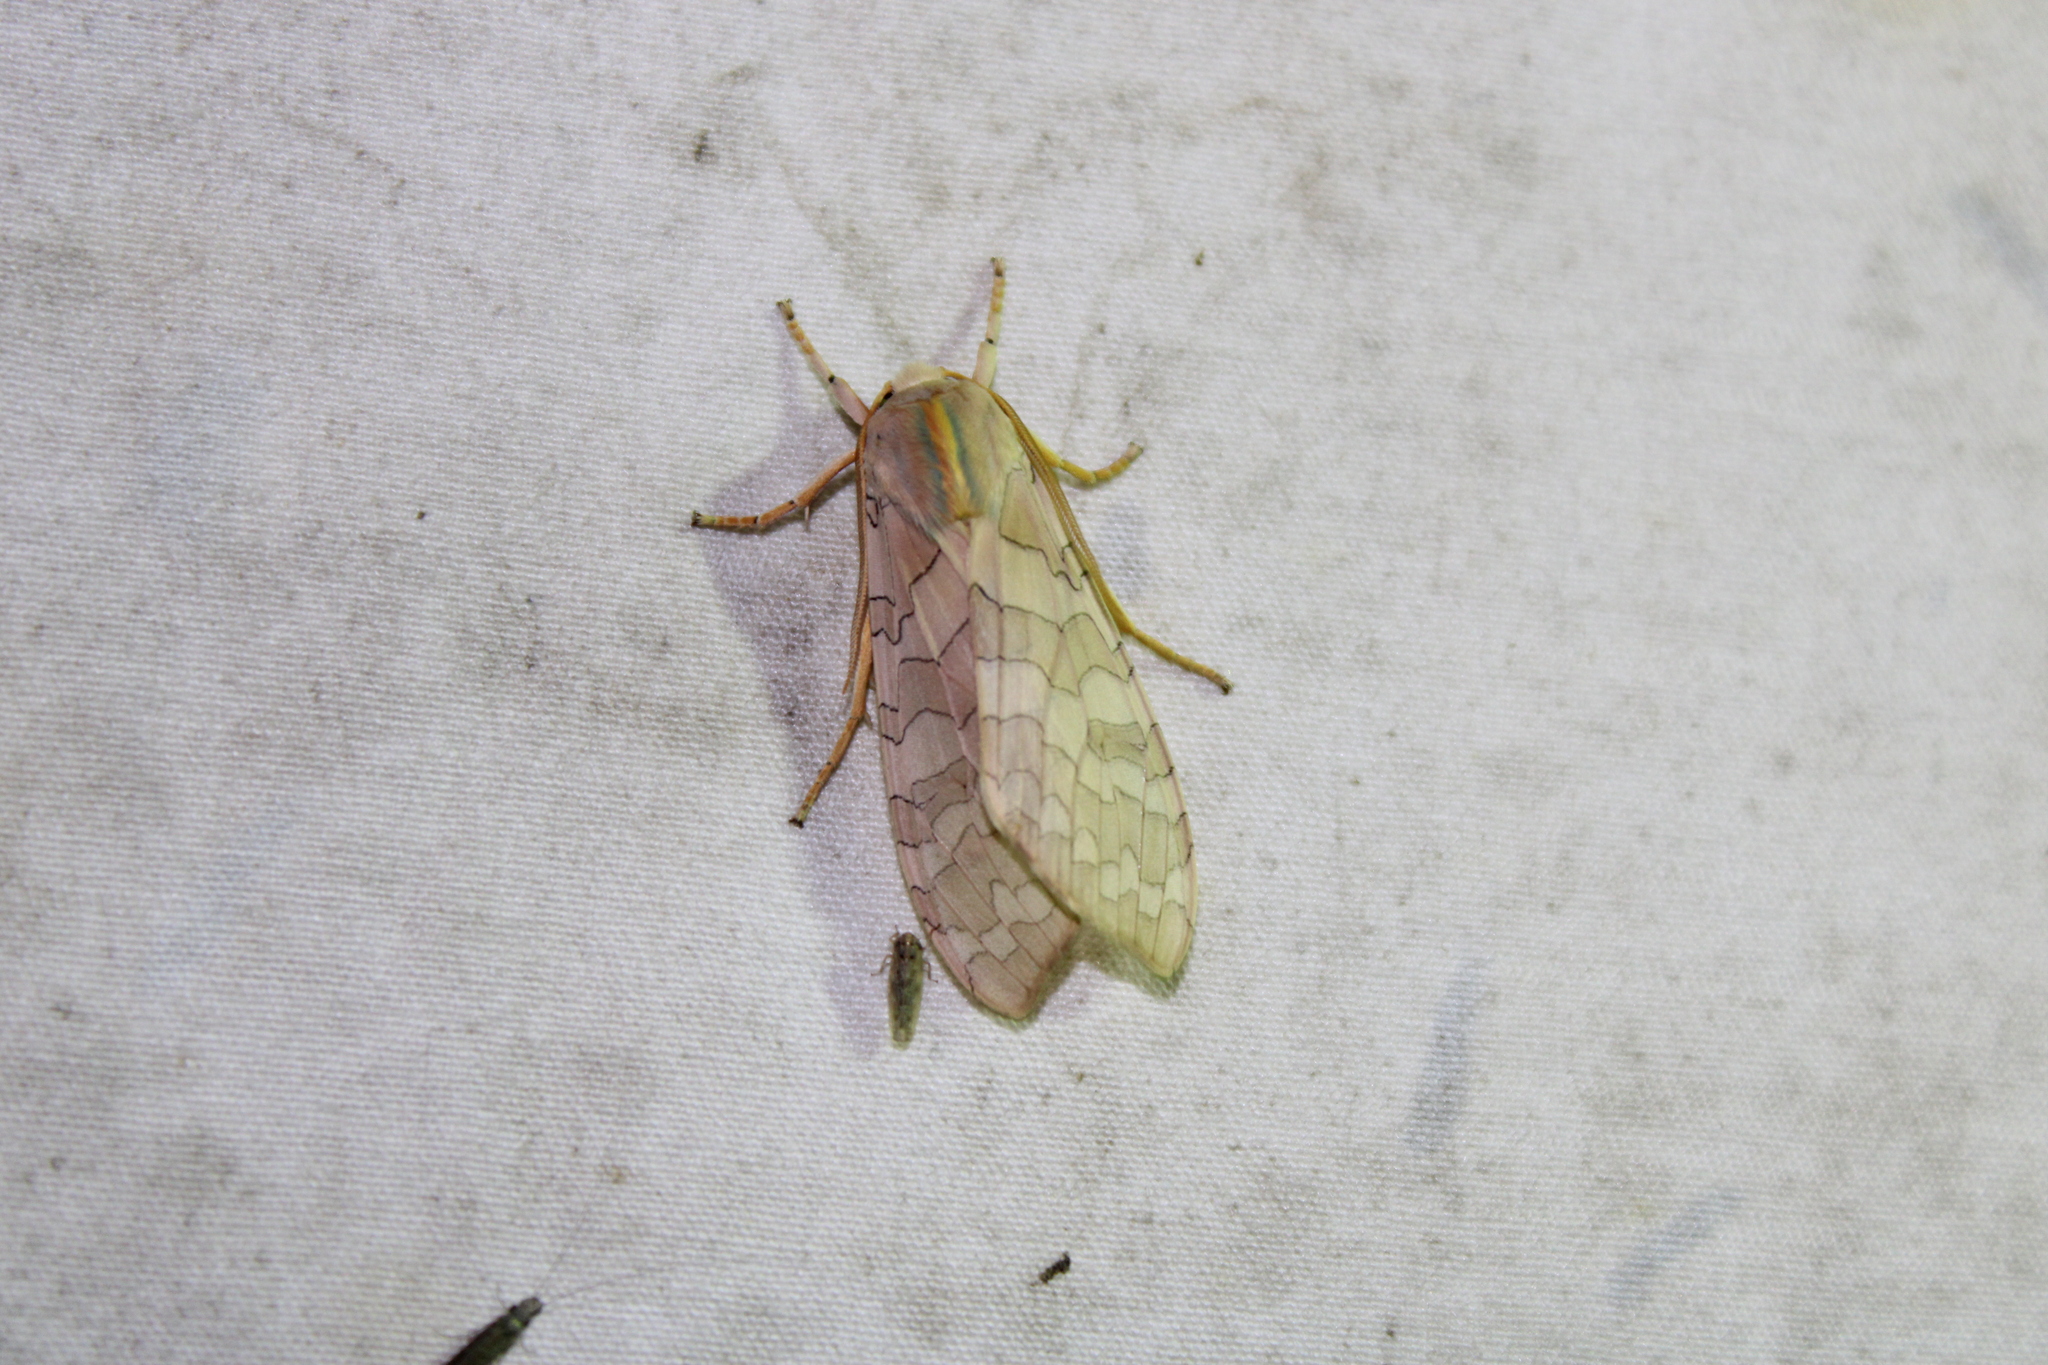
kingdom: Animalia
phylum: Arthropoda
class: Insecta
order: Lepidoptera
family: Erebidae
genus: Halysidota
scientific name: Halysidota
